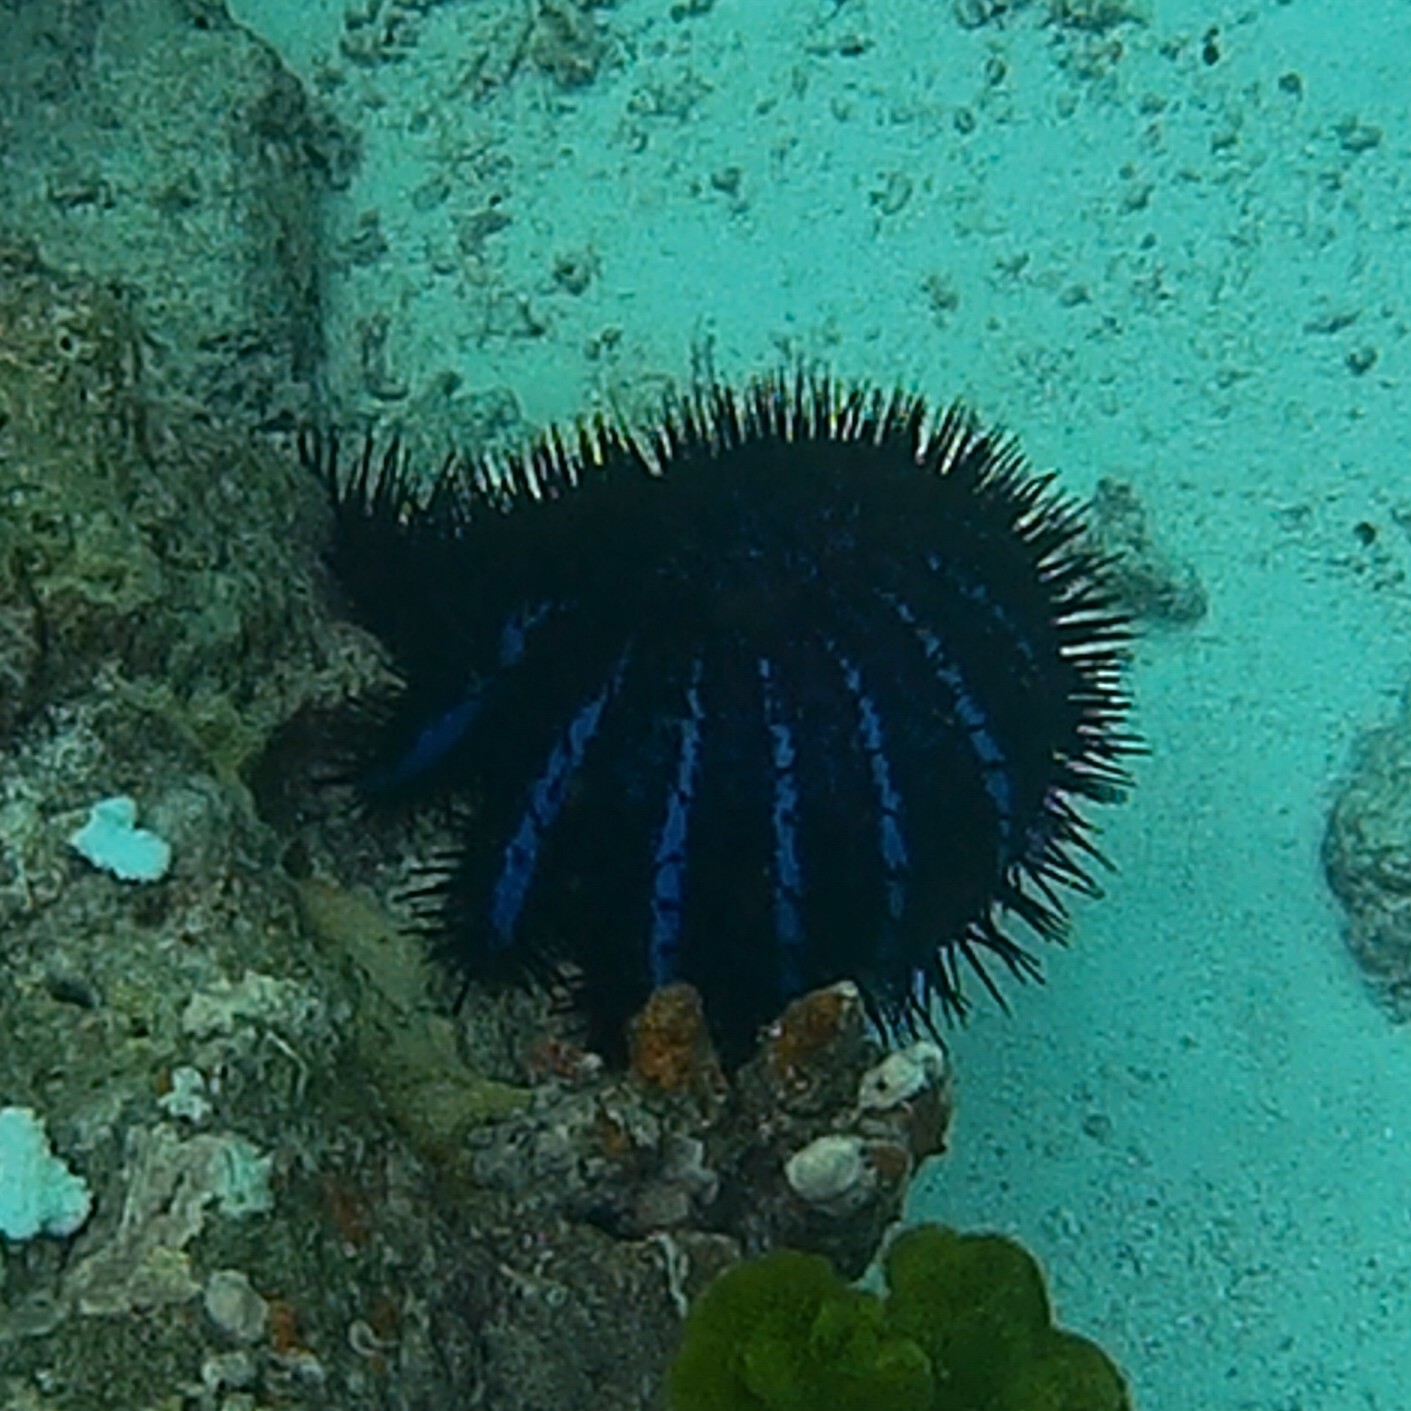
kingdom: Animalia
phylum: Echinodermata
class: Asteroidea
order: Valvatida
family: Acanthasteridae
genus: Acanthaster
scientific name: Acanthaster planci
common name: Crown-of-thorns
